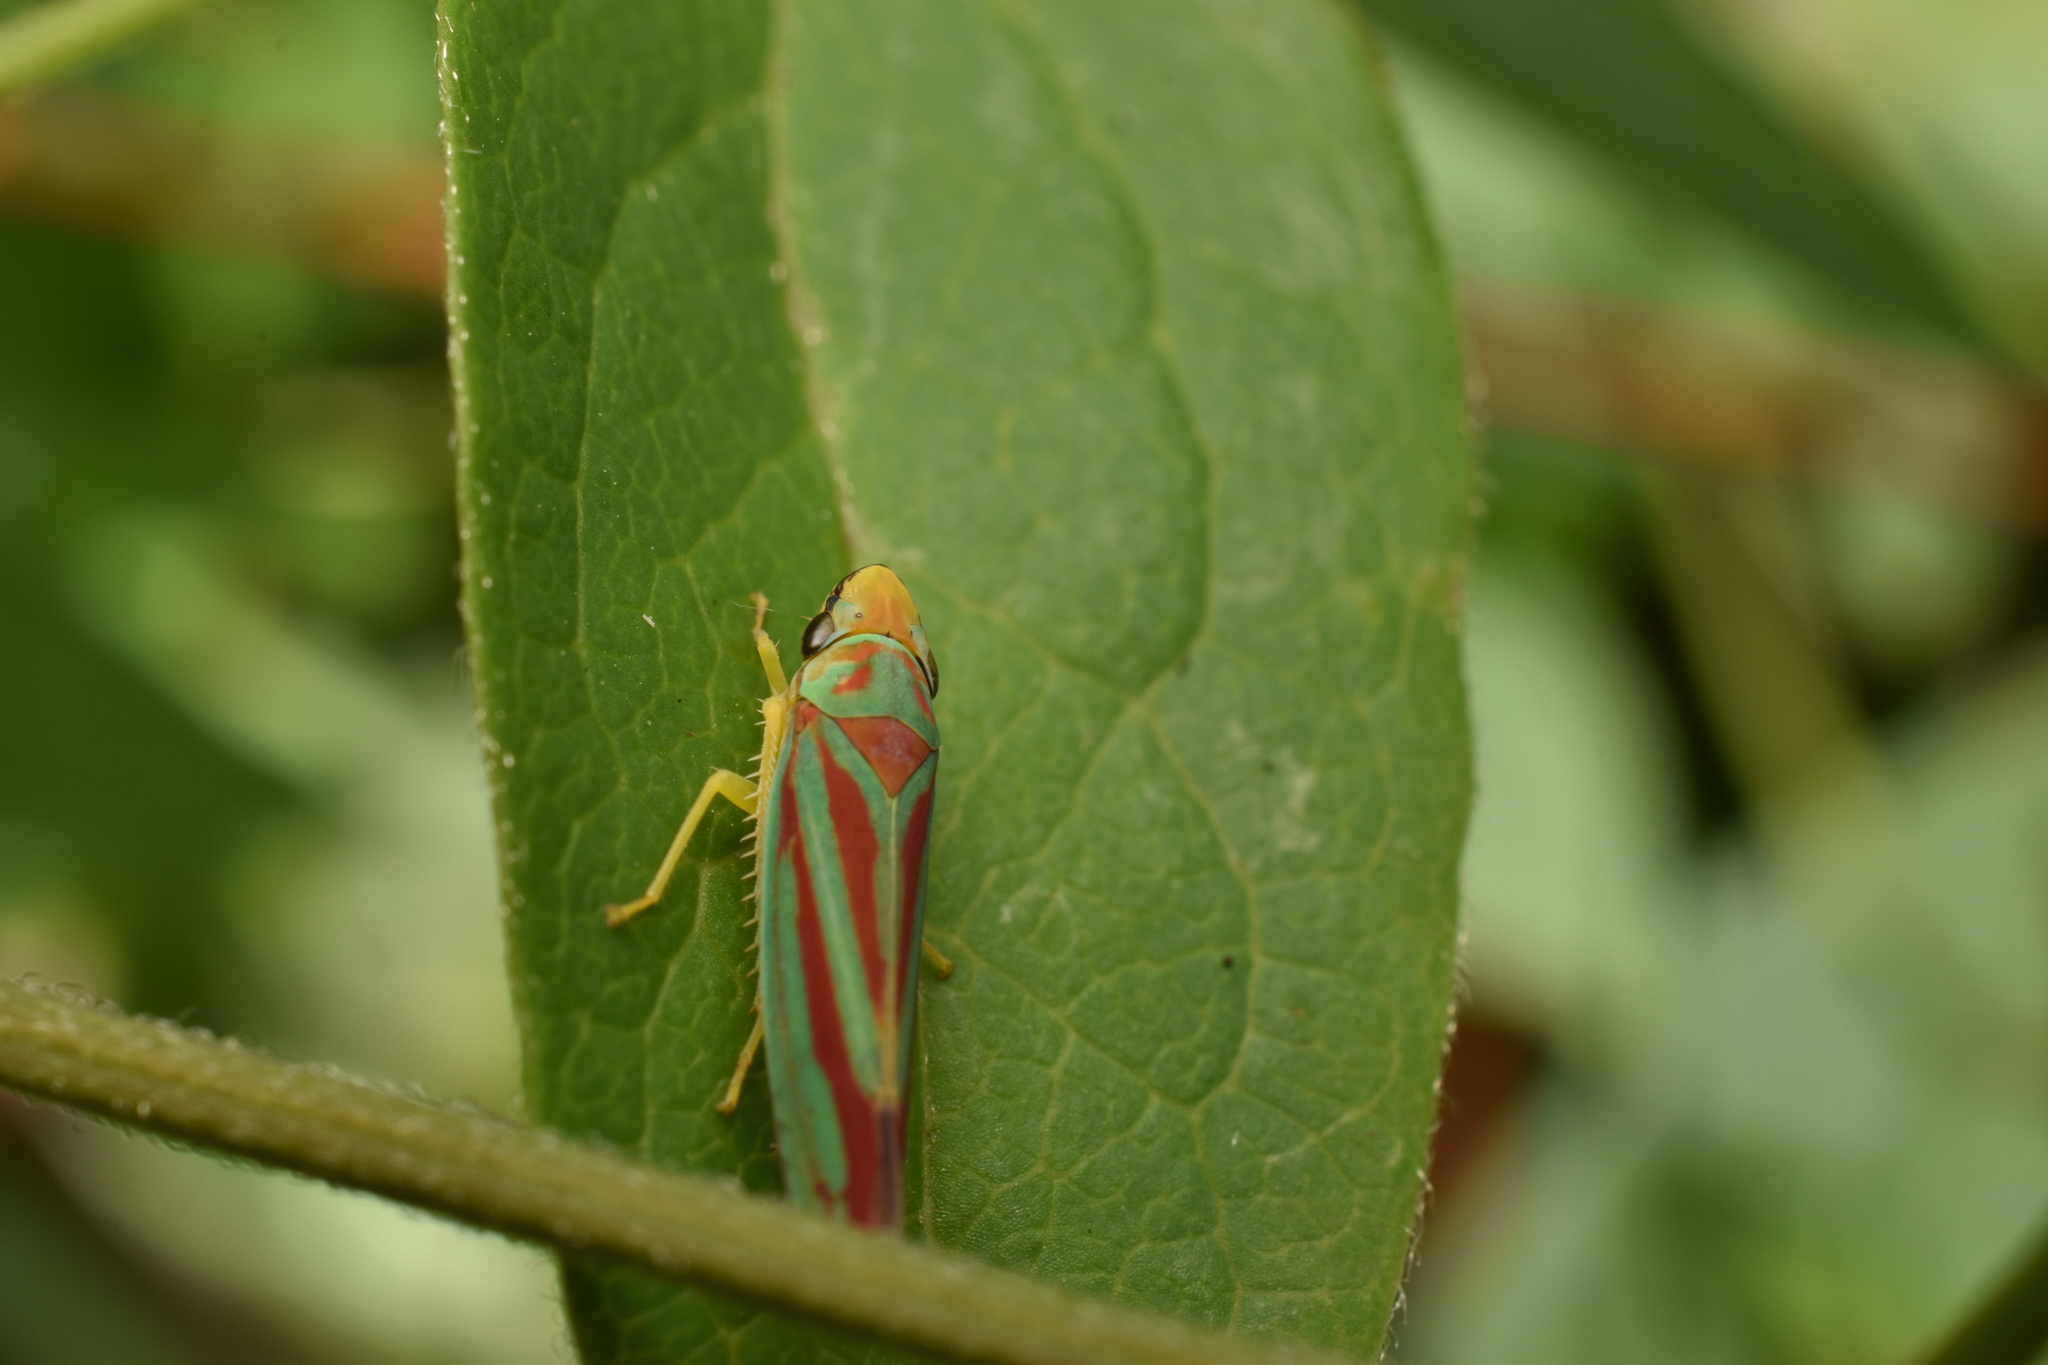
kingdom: Animalia
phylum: Arthropoda
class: Insecta
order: Hemiptera
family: Cicadellidae
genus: Graphocephala
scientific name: Graphocephala coccinea
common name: Candy-striped leafhopper
